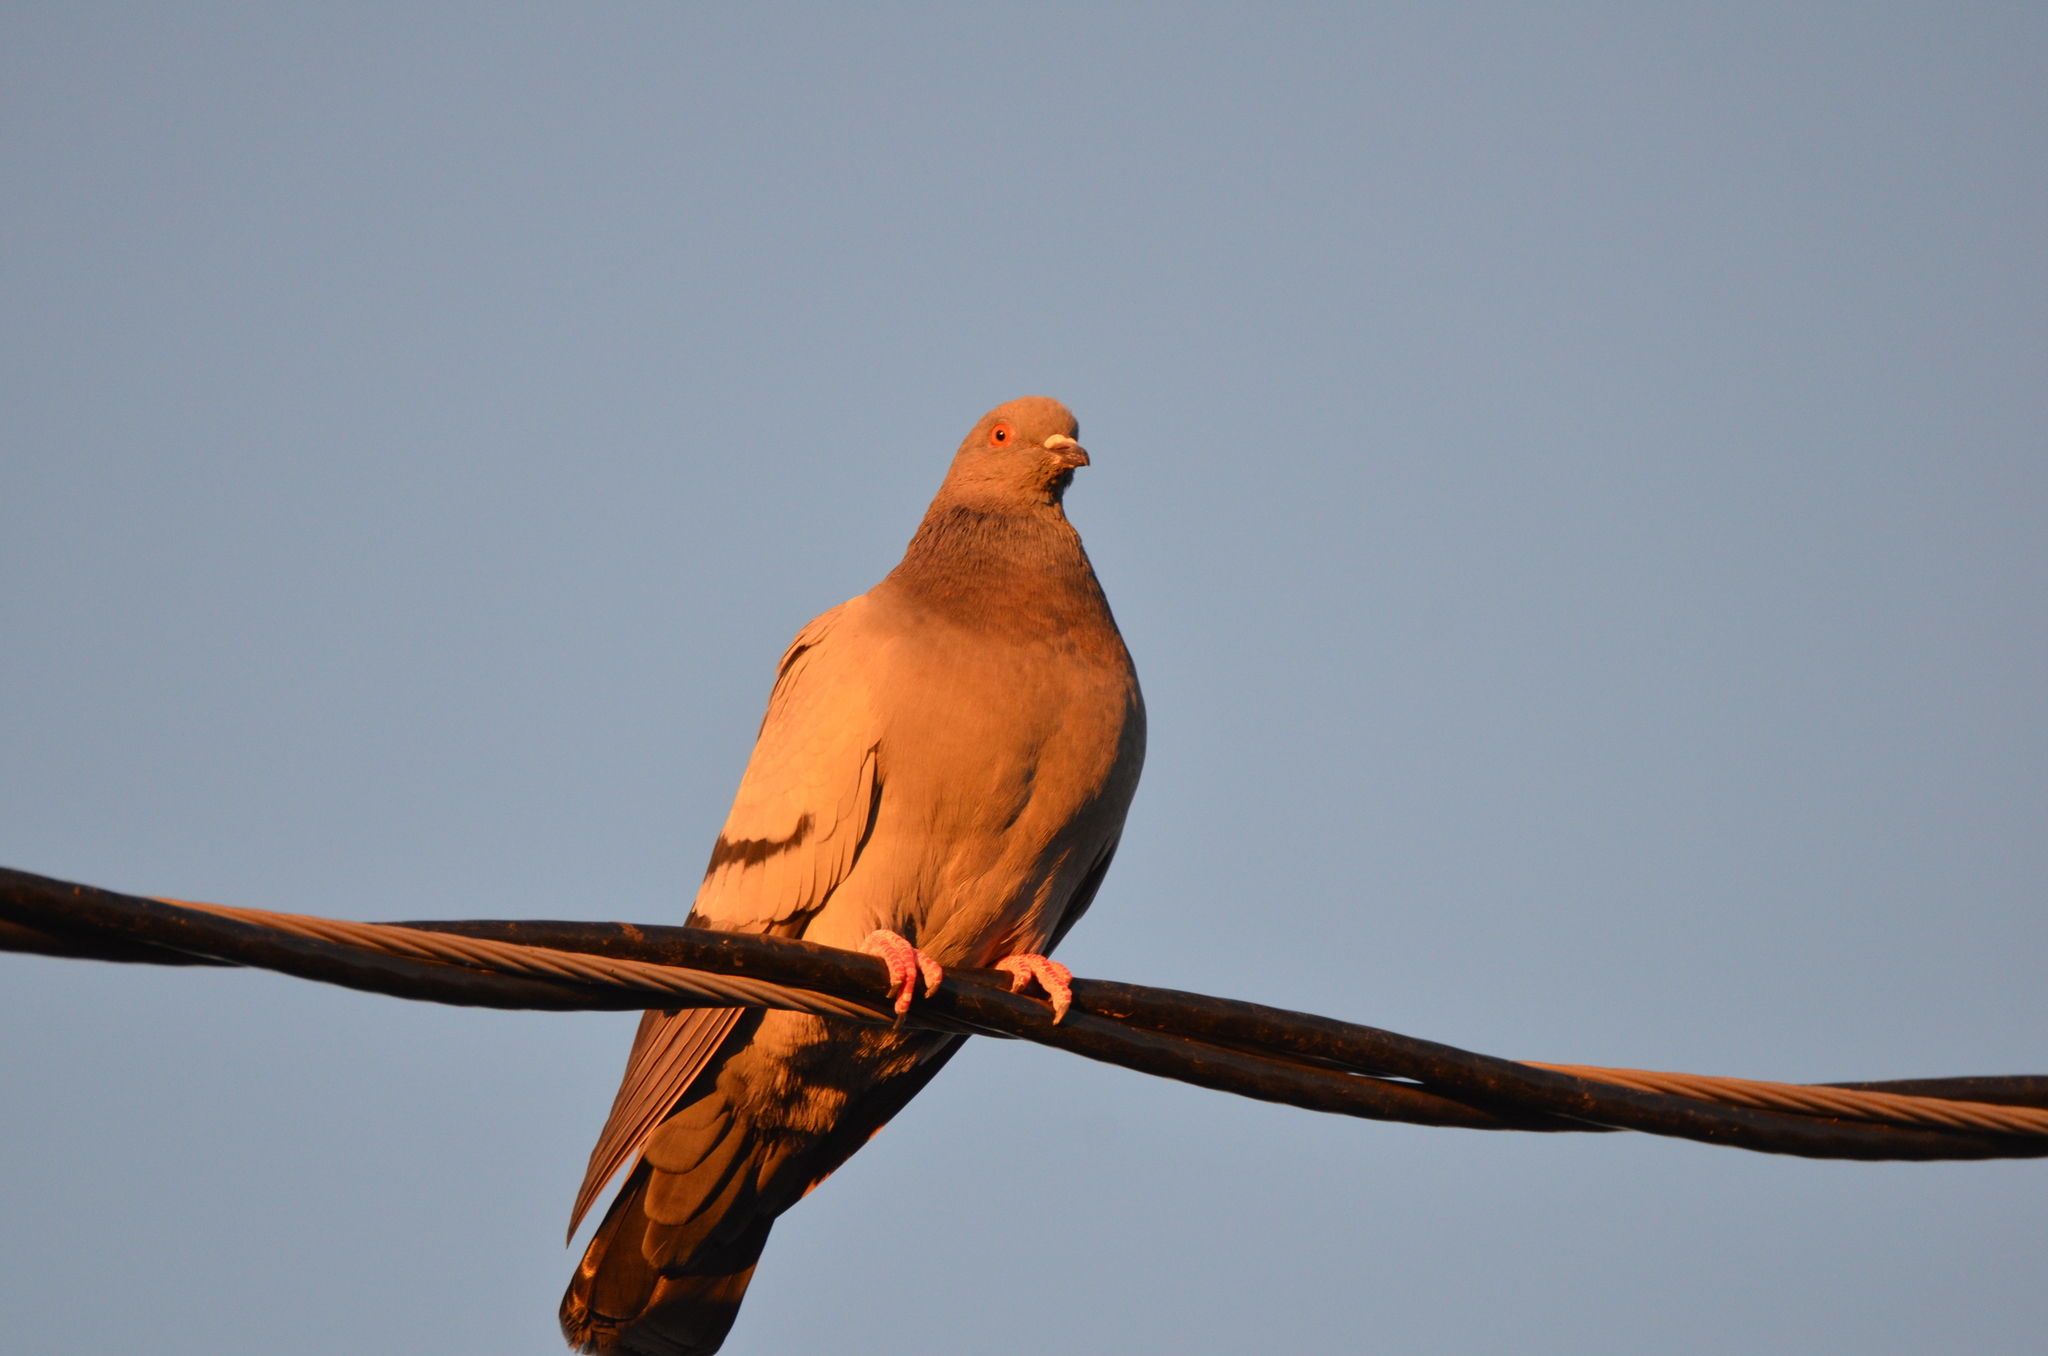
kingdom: Animalia
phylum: Chordata
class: Aves
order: Columbiformes
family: Columbidae
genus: Columba
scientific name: Columba livia
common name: Rock pigeon
